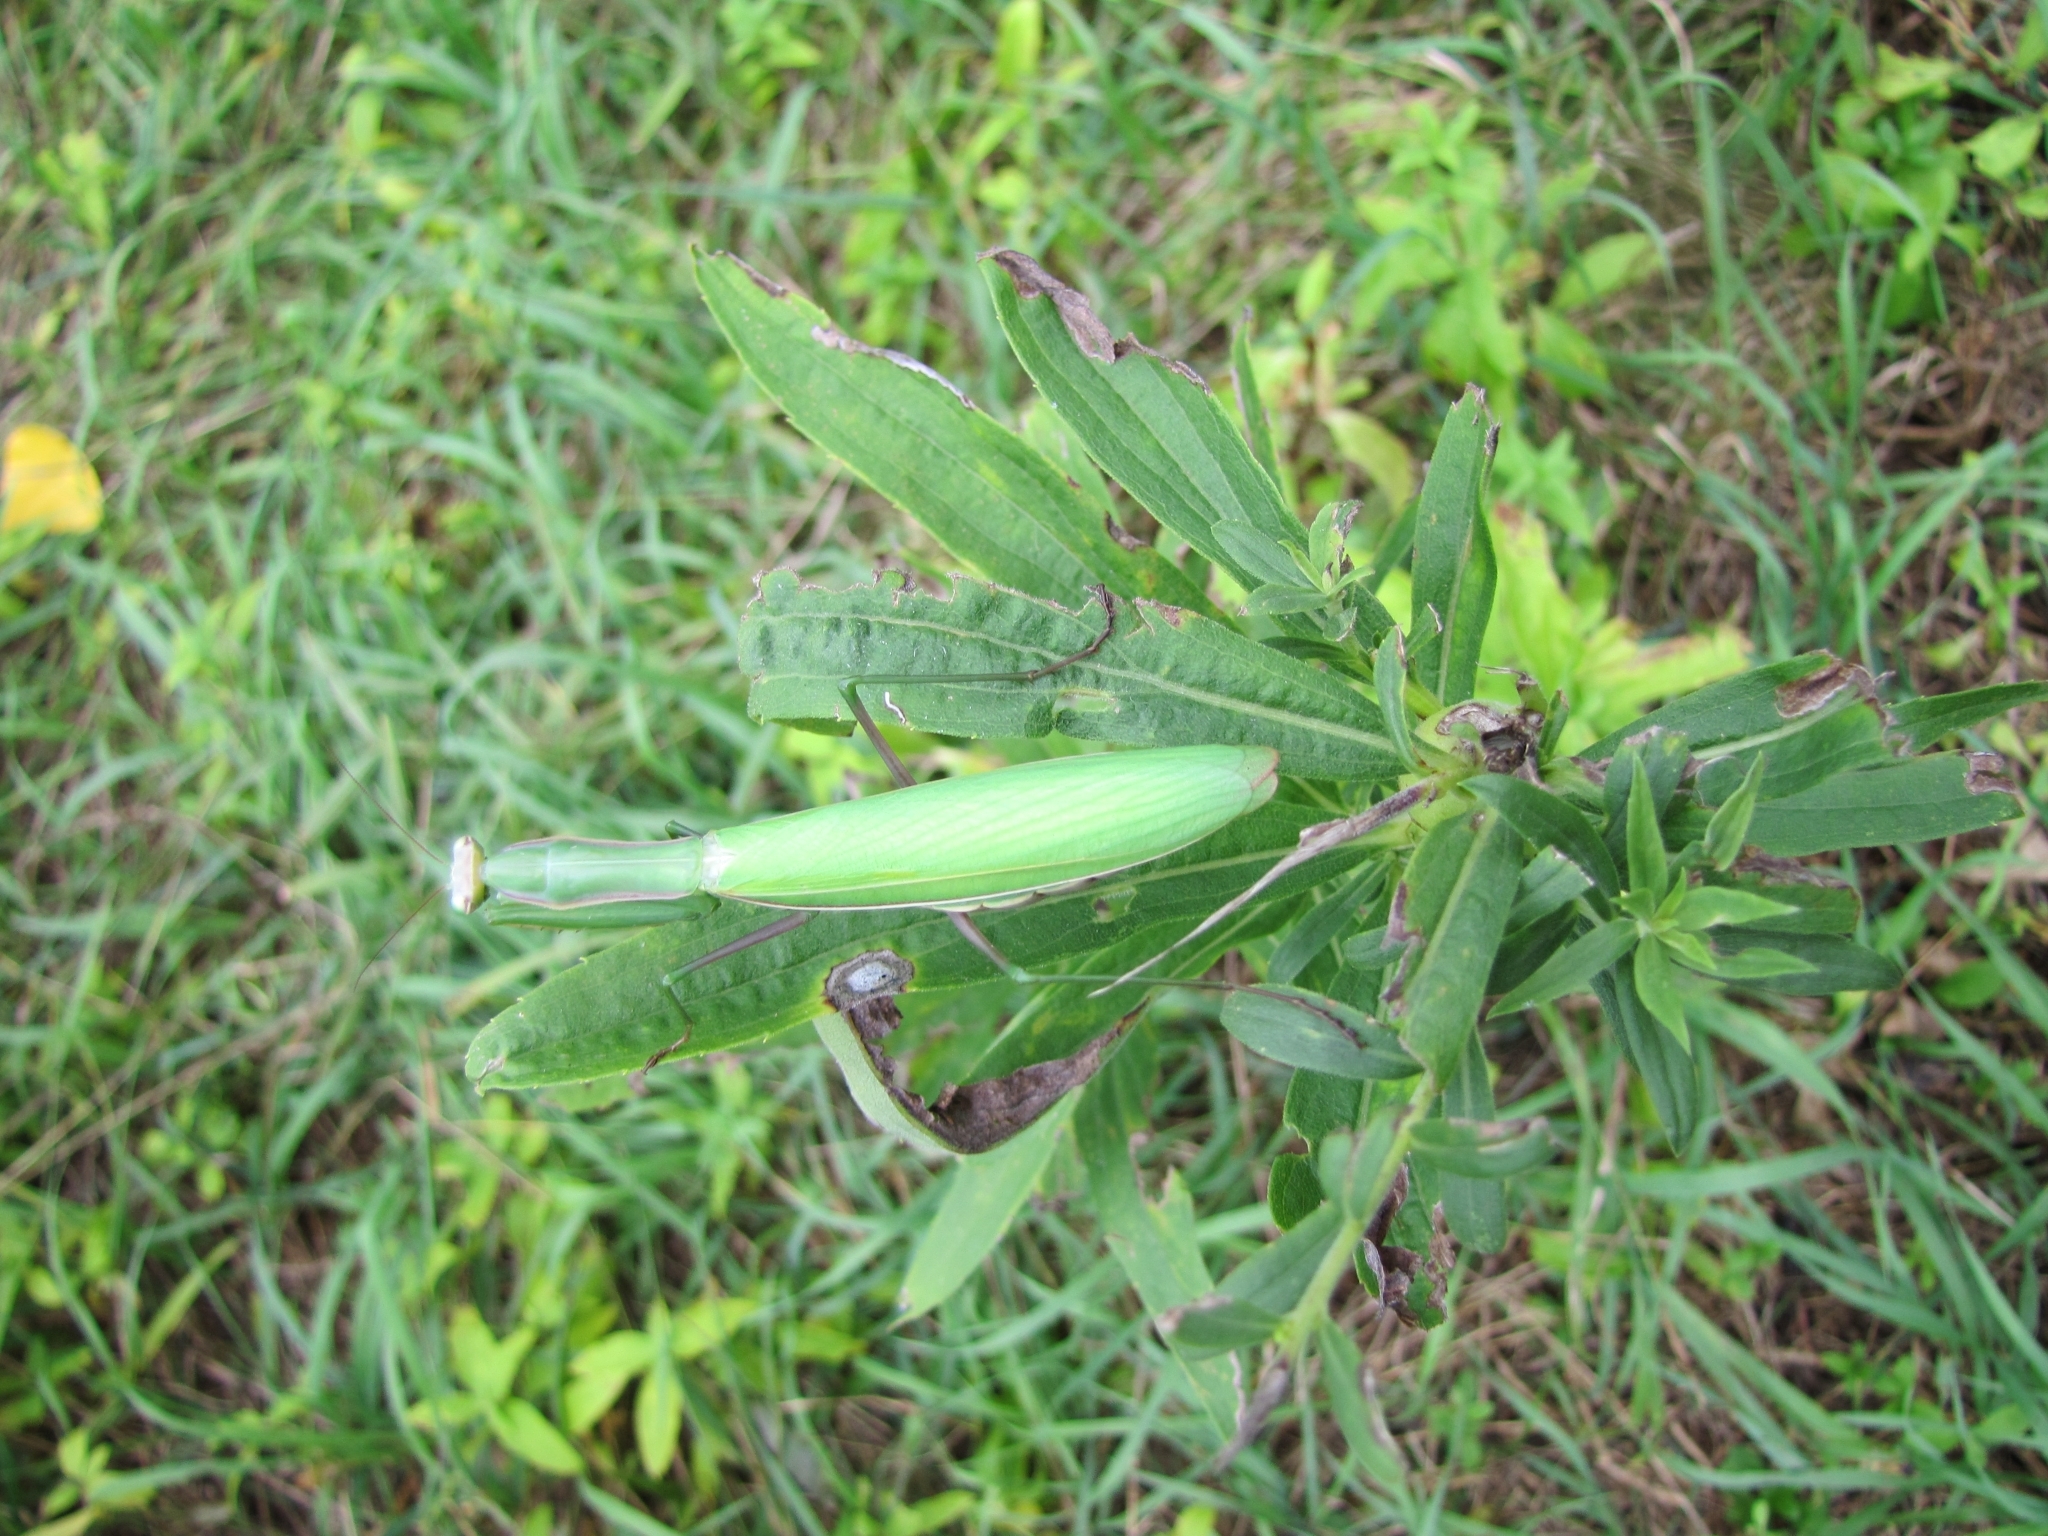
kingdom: Animalia
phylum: Arthropoda
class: Insecta
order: Mantodea
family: Mantidae
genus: Mantis
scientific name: Mantis religiosa
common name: Praying mantis
